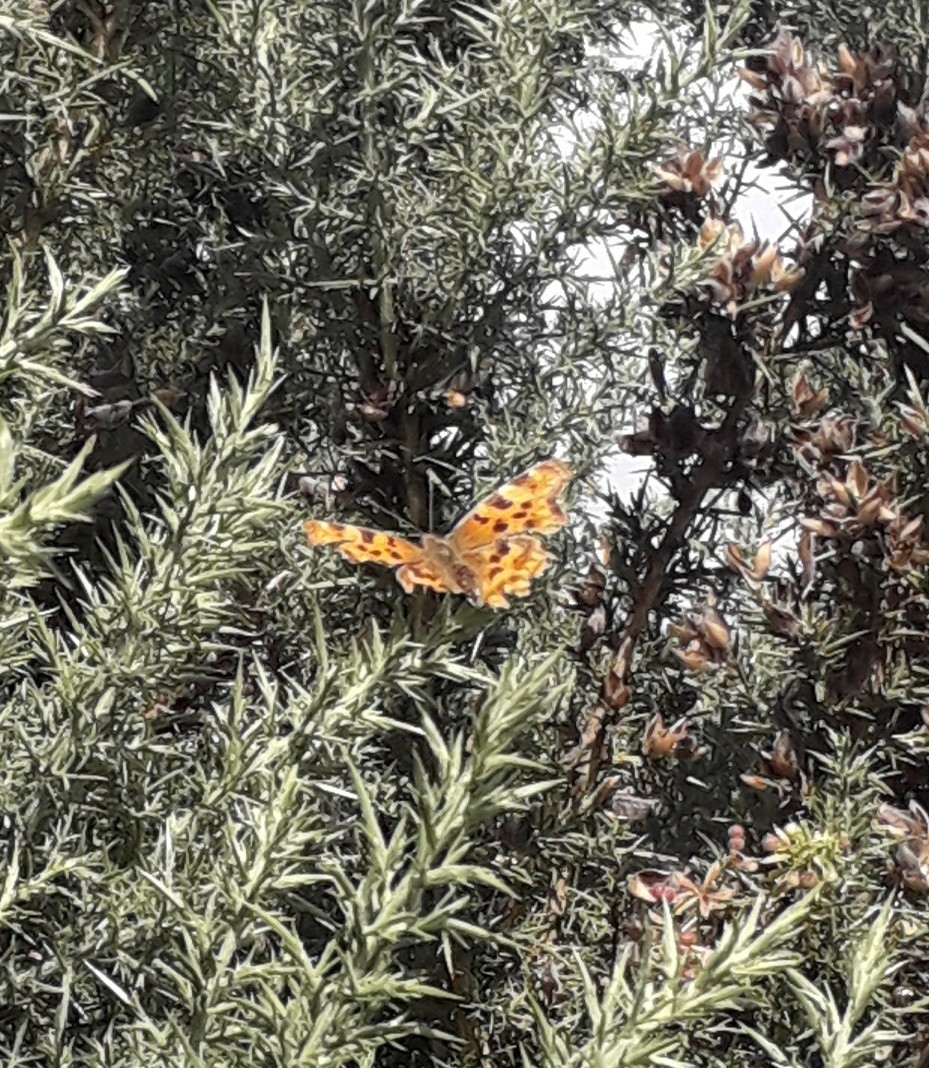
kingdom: Animalia
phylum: Arthropoda
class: Insecta
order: Lepidoptera
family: Nymphalidae
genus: Polygonia
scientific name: Polygonia c-album
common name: Comma
